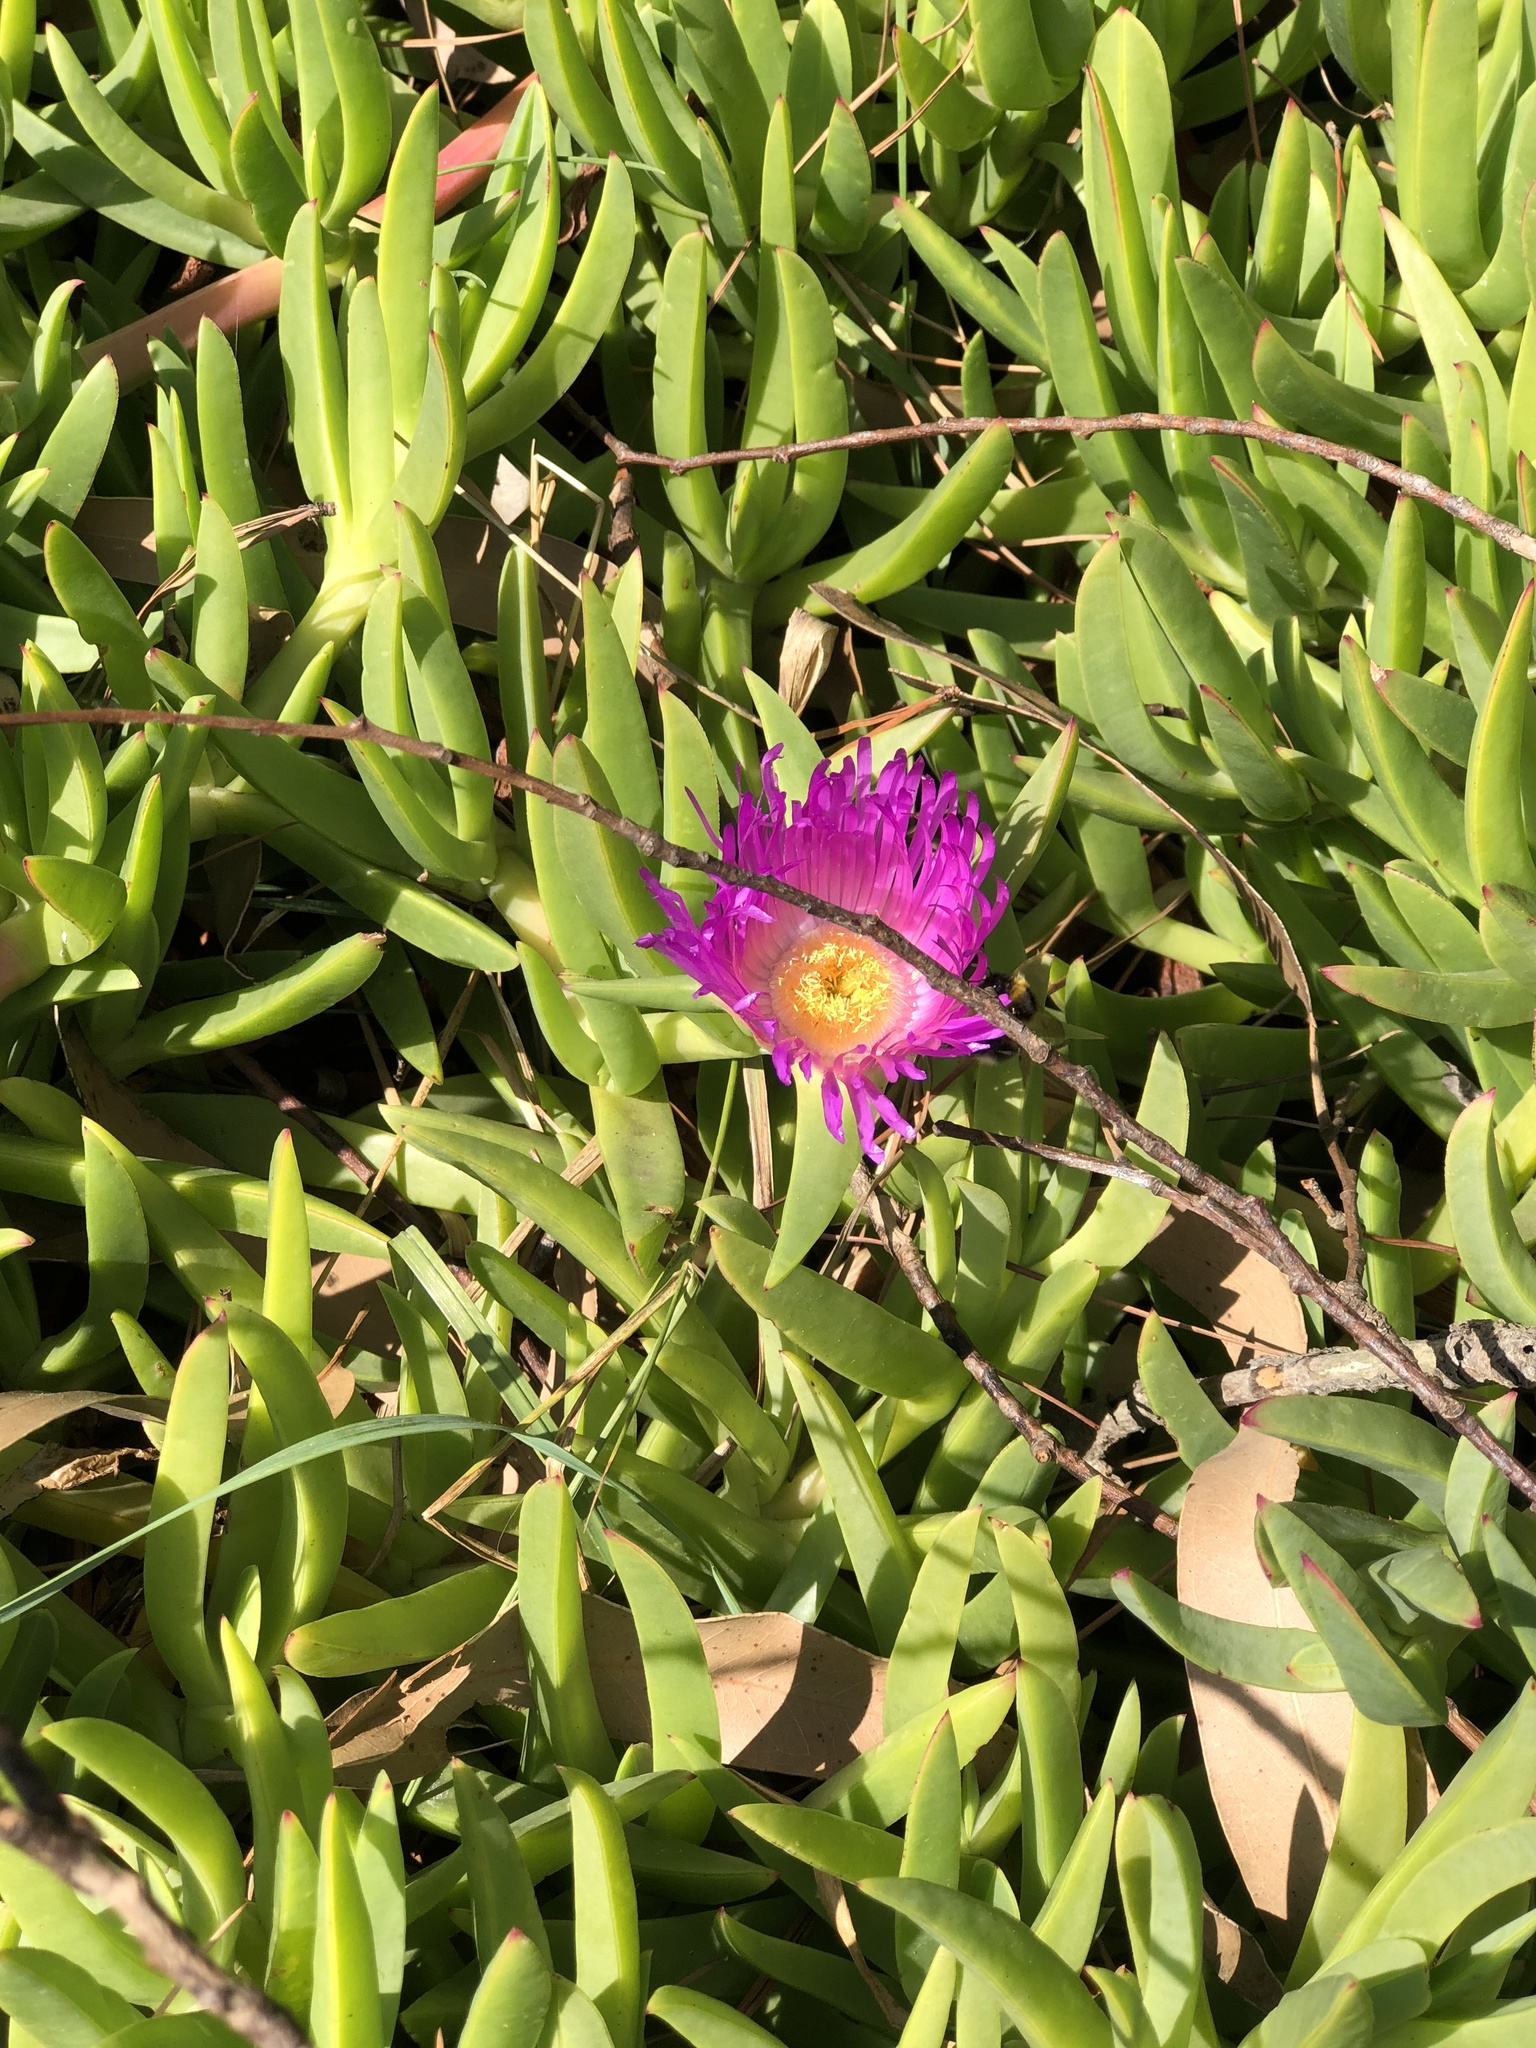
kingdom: Plantae
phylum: Tracheophyta
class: Magnoliopsida
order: Caryophyllales
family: Aizoaceae
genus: Carpobrotus
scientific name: Carpobrotus chilensis
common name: Sea fig
